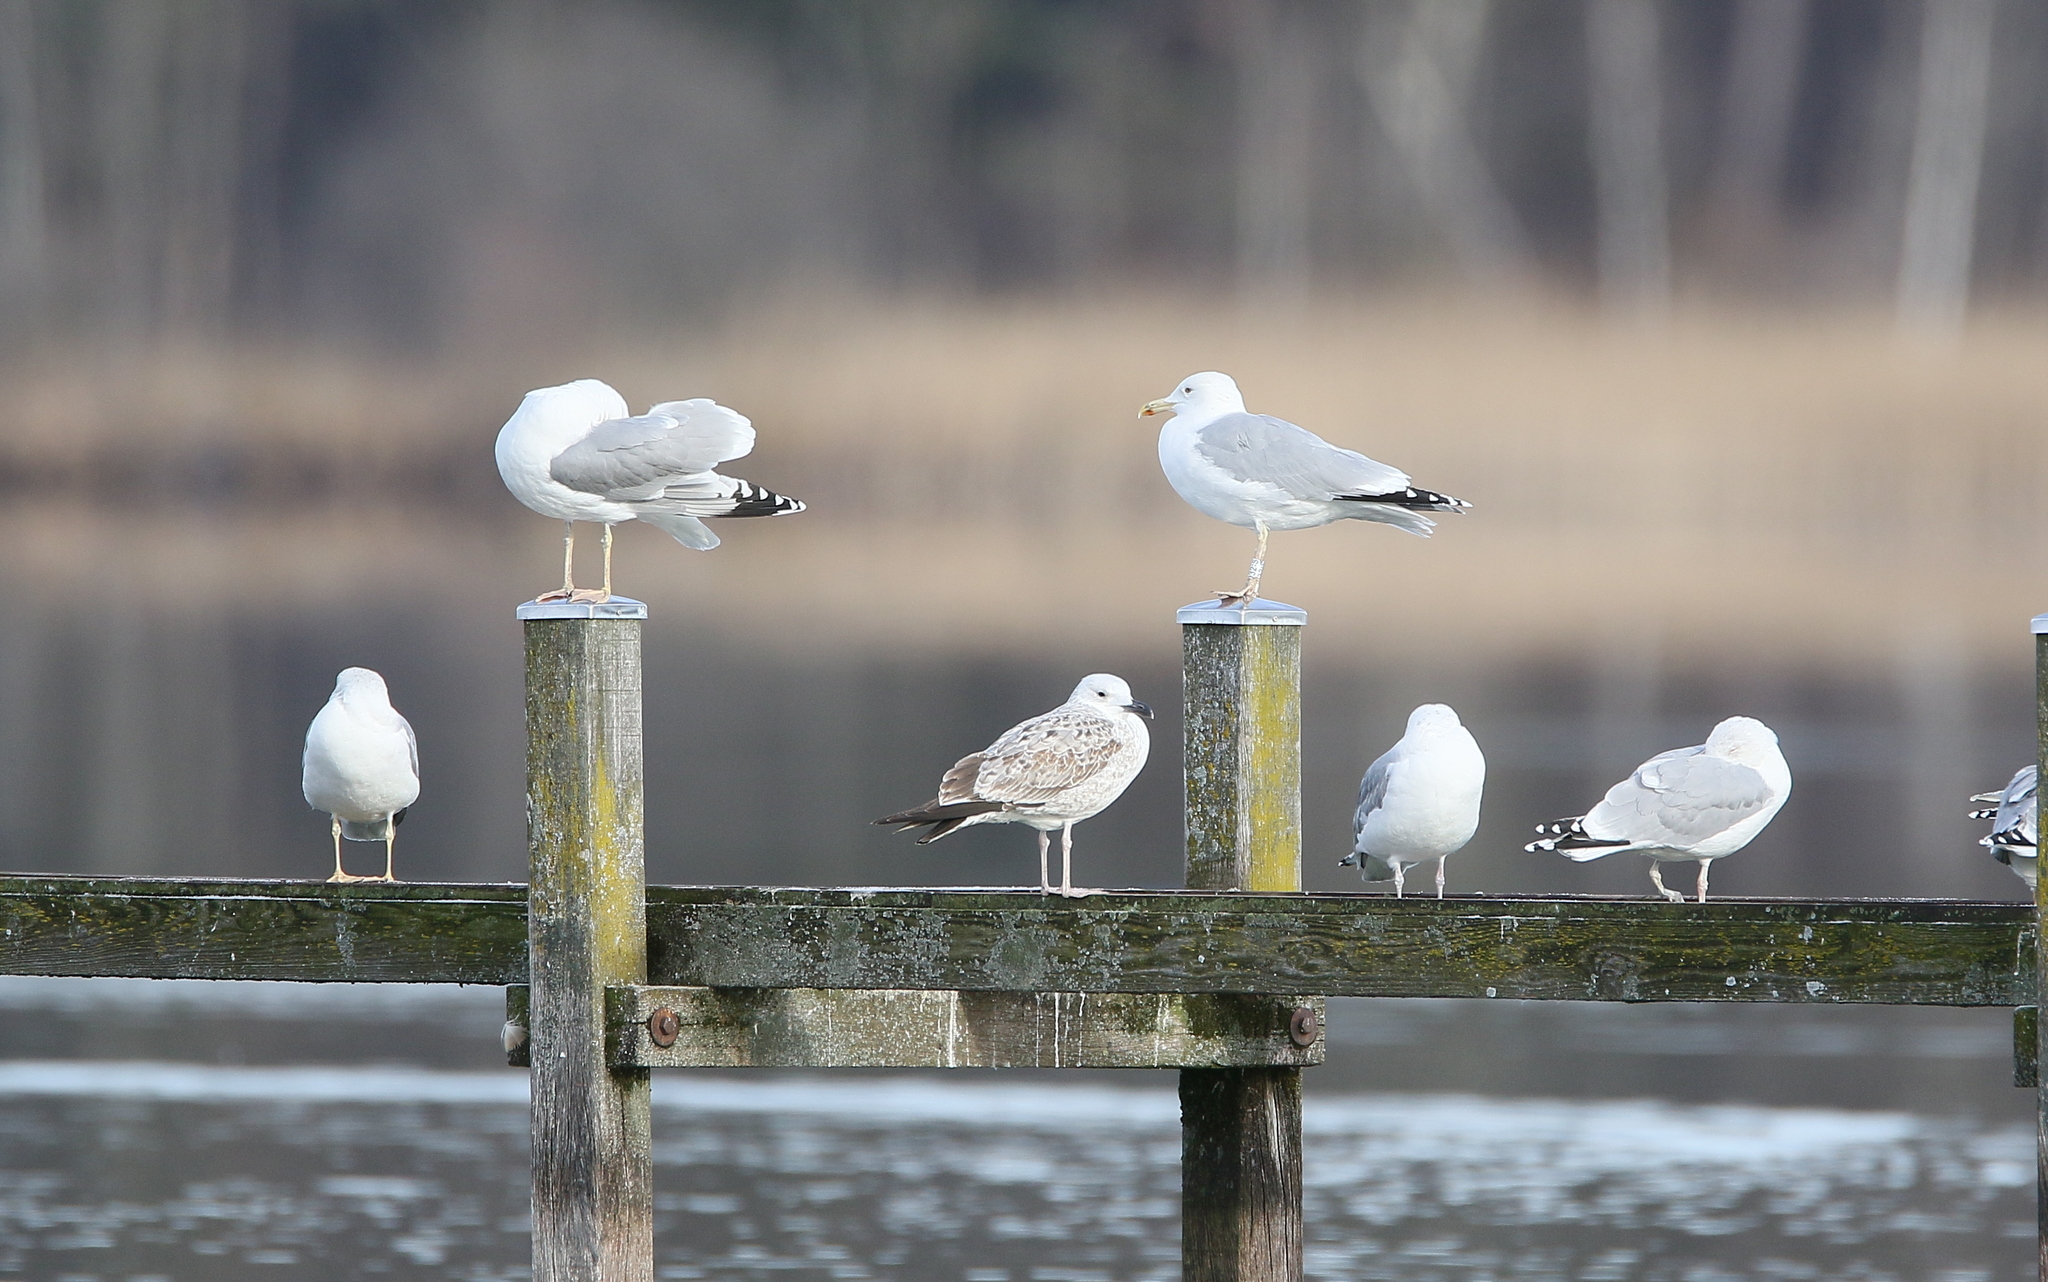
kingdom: Animalia
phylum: Chordata
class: Aves
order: Charadriiformes
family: Laridae
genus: Larus
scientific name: Larus cachinnans
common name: Caspian gull
